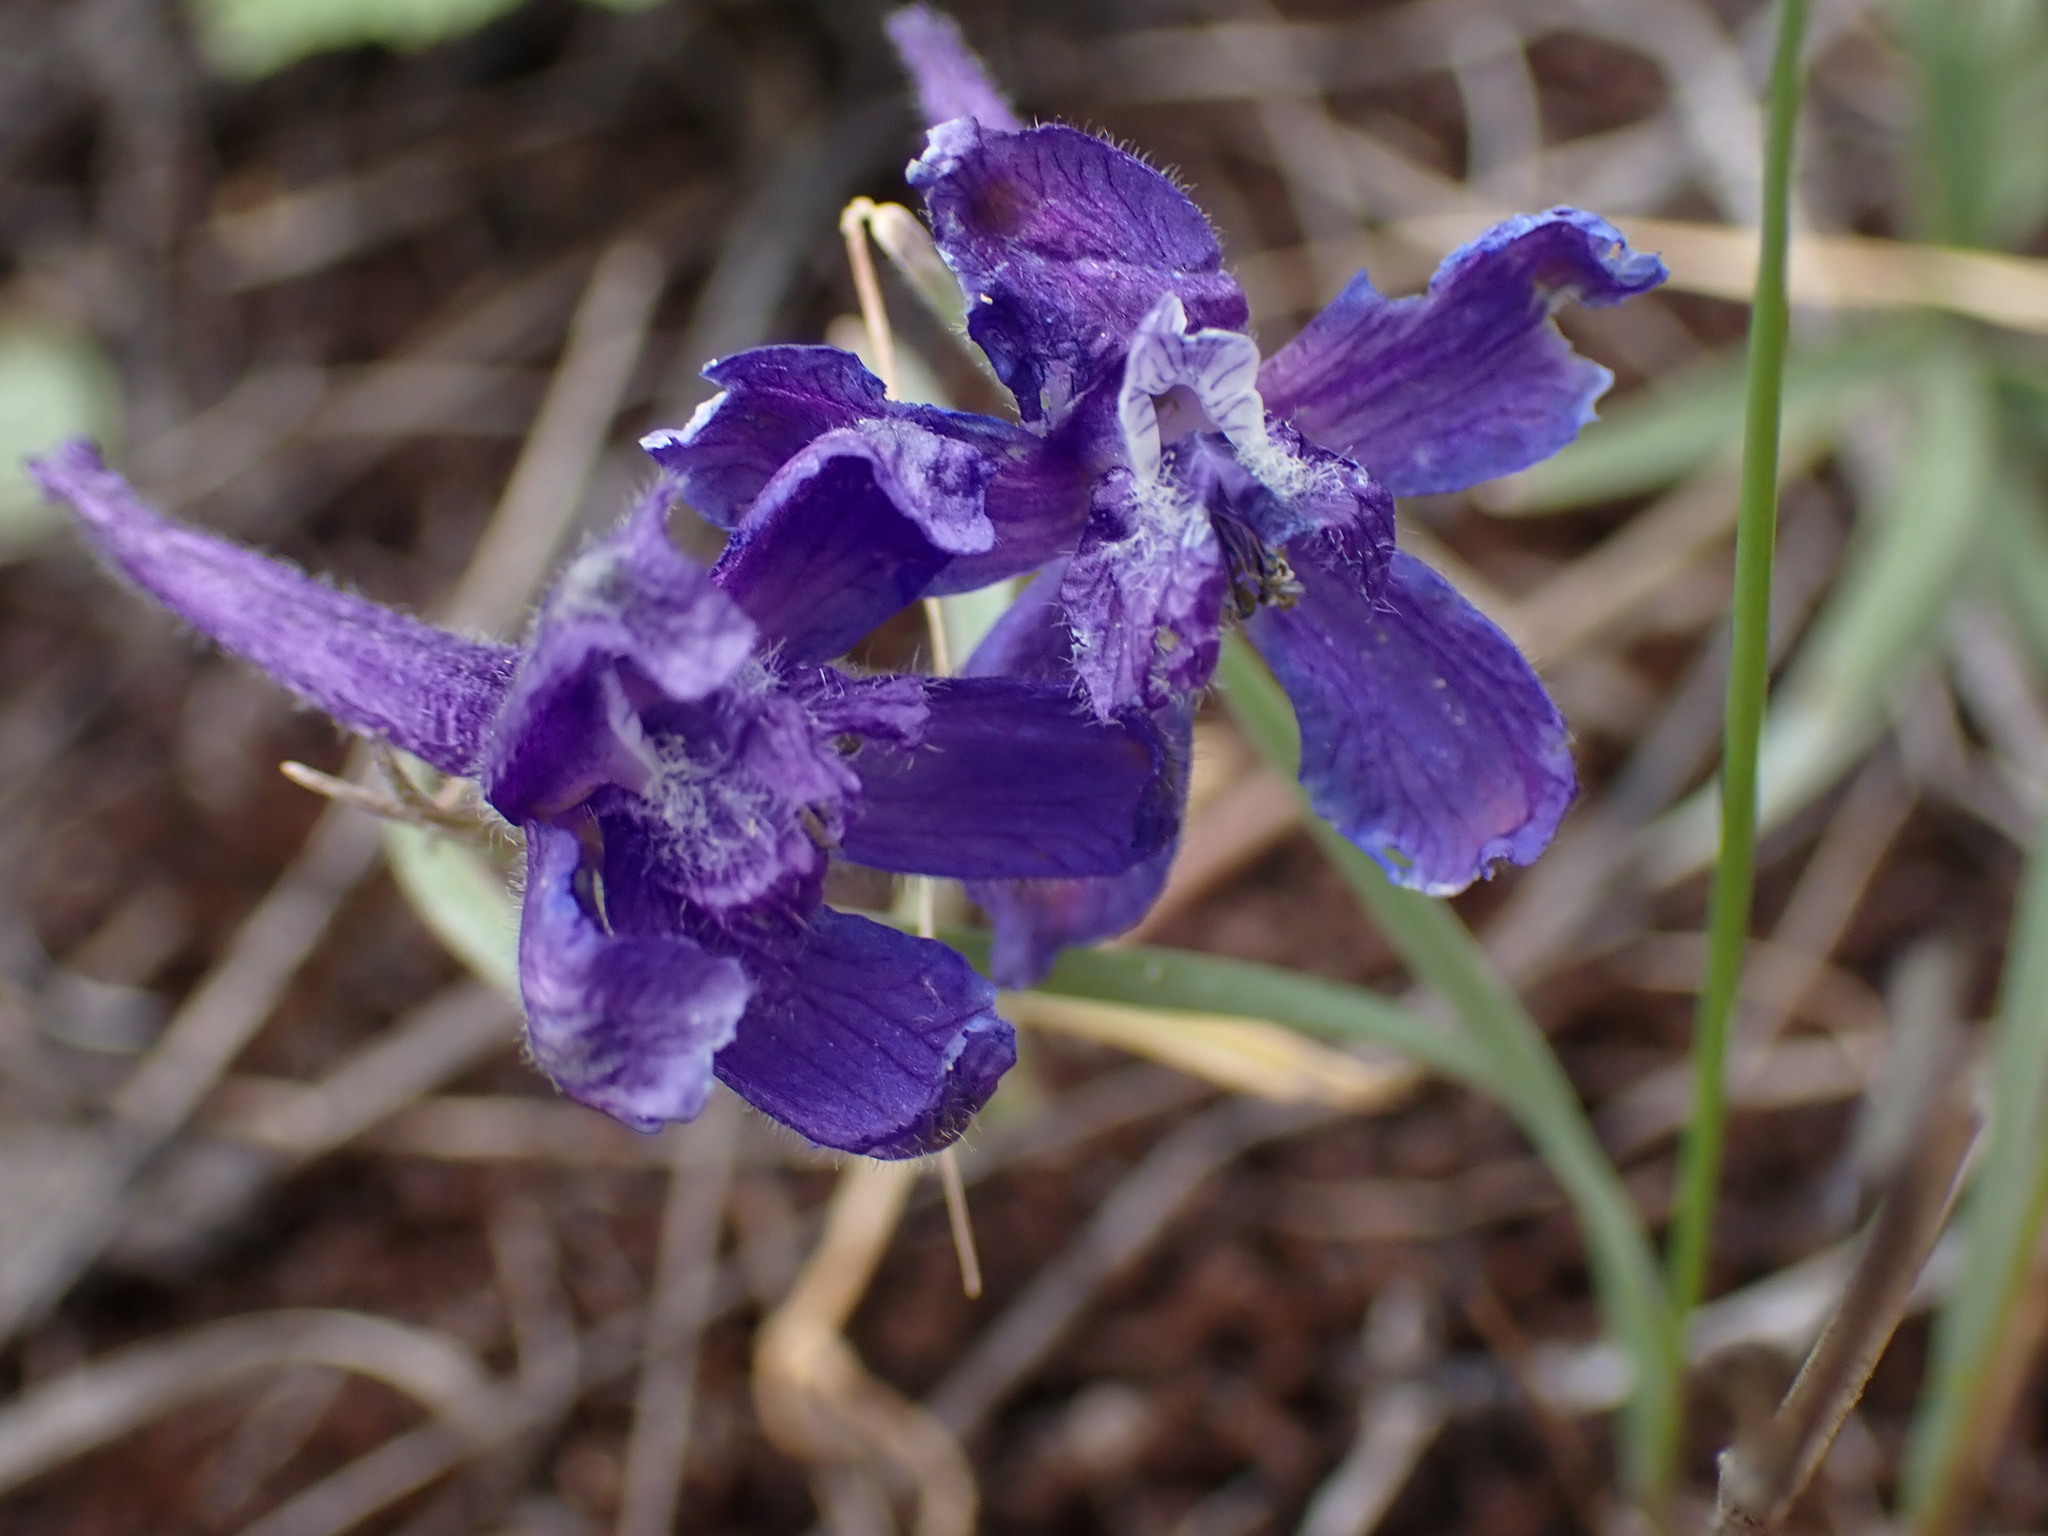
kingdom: Plantae
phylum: Tracheophyta
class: Magnoliopsida
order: Ranunculales
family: Ranunculaceae
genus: Delphinium
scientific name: Delphinium nuttallianum
